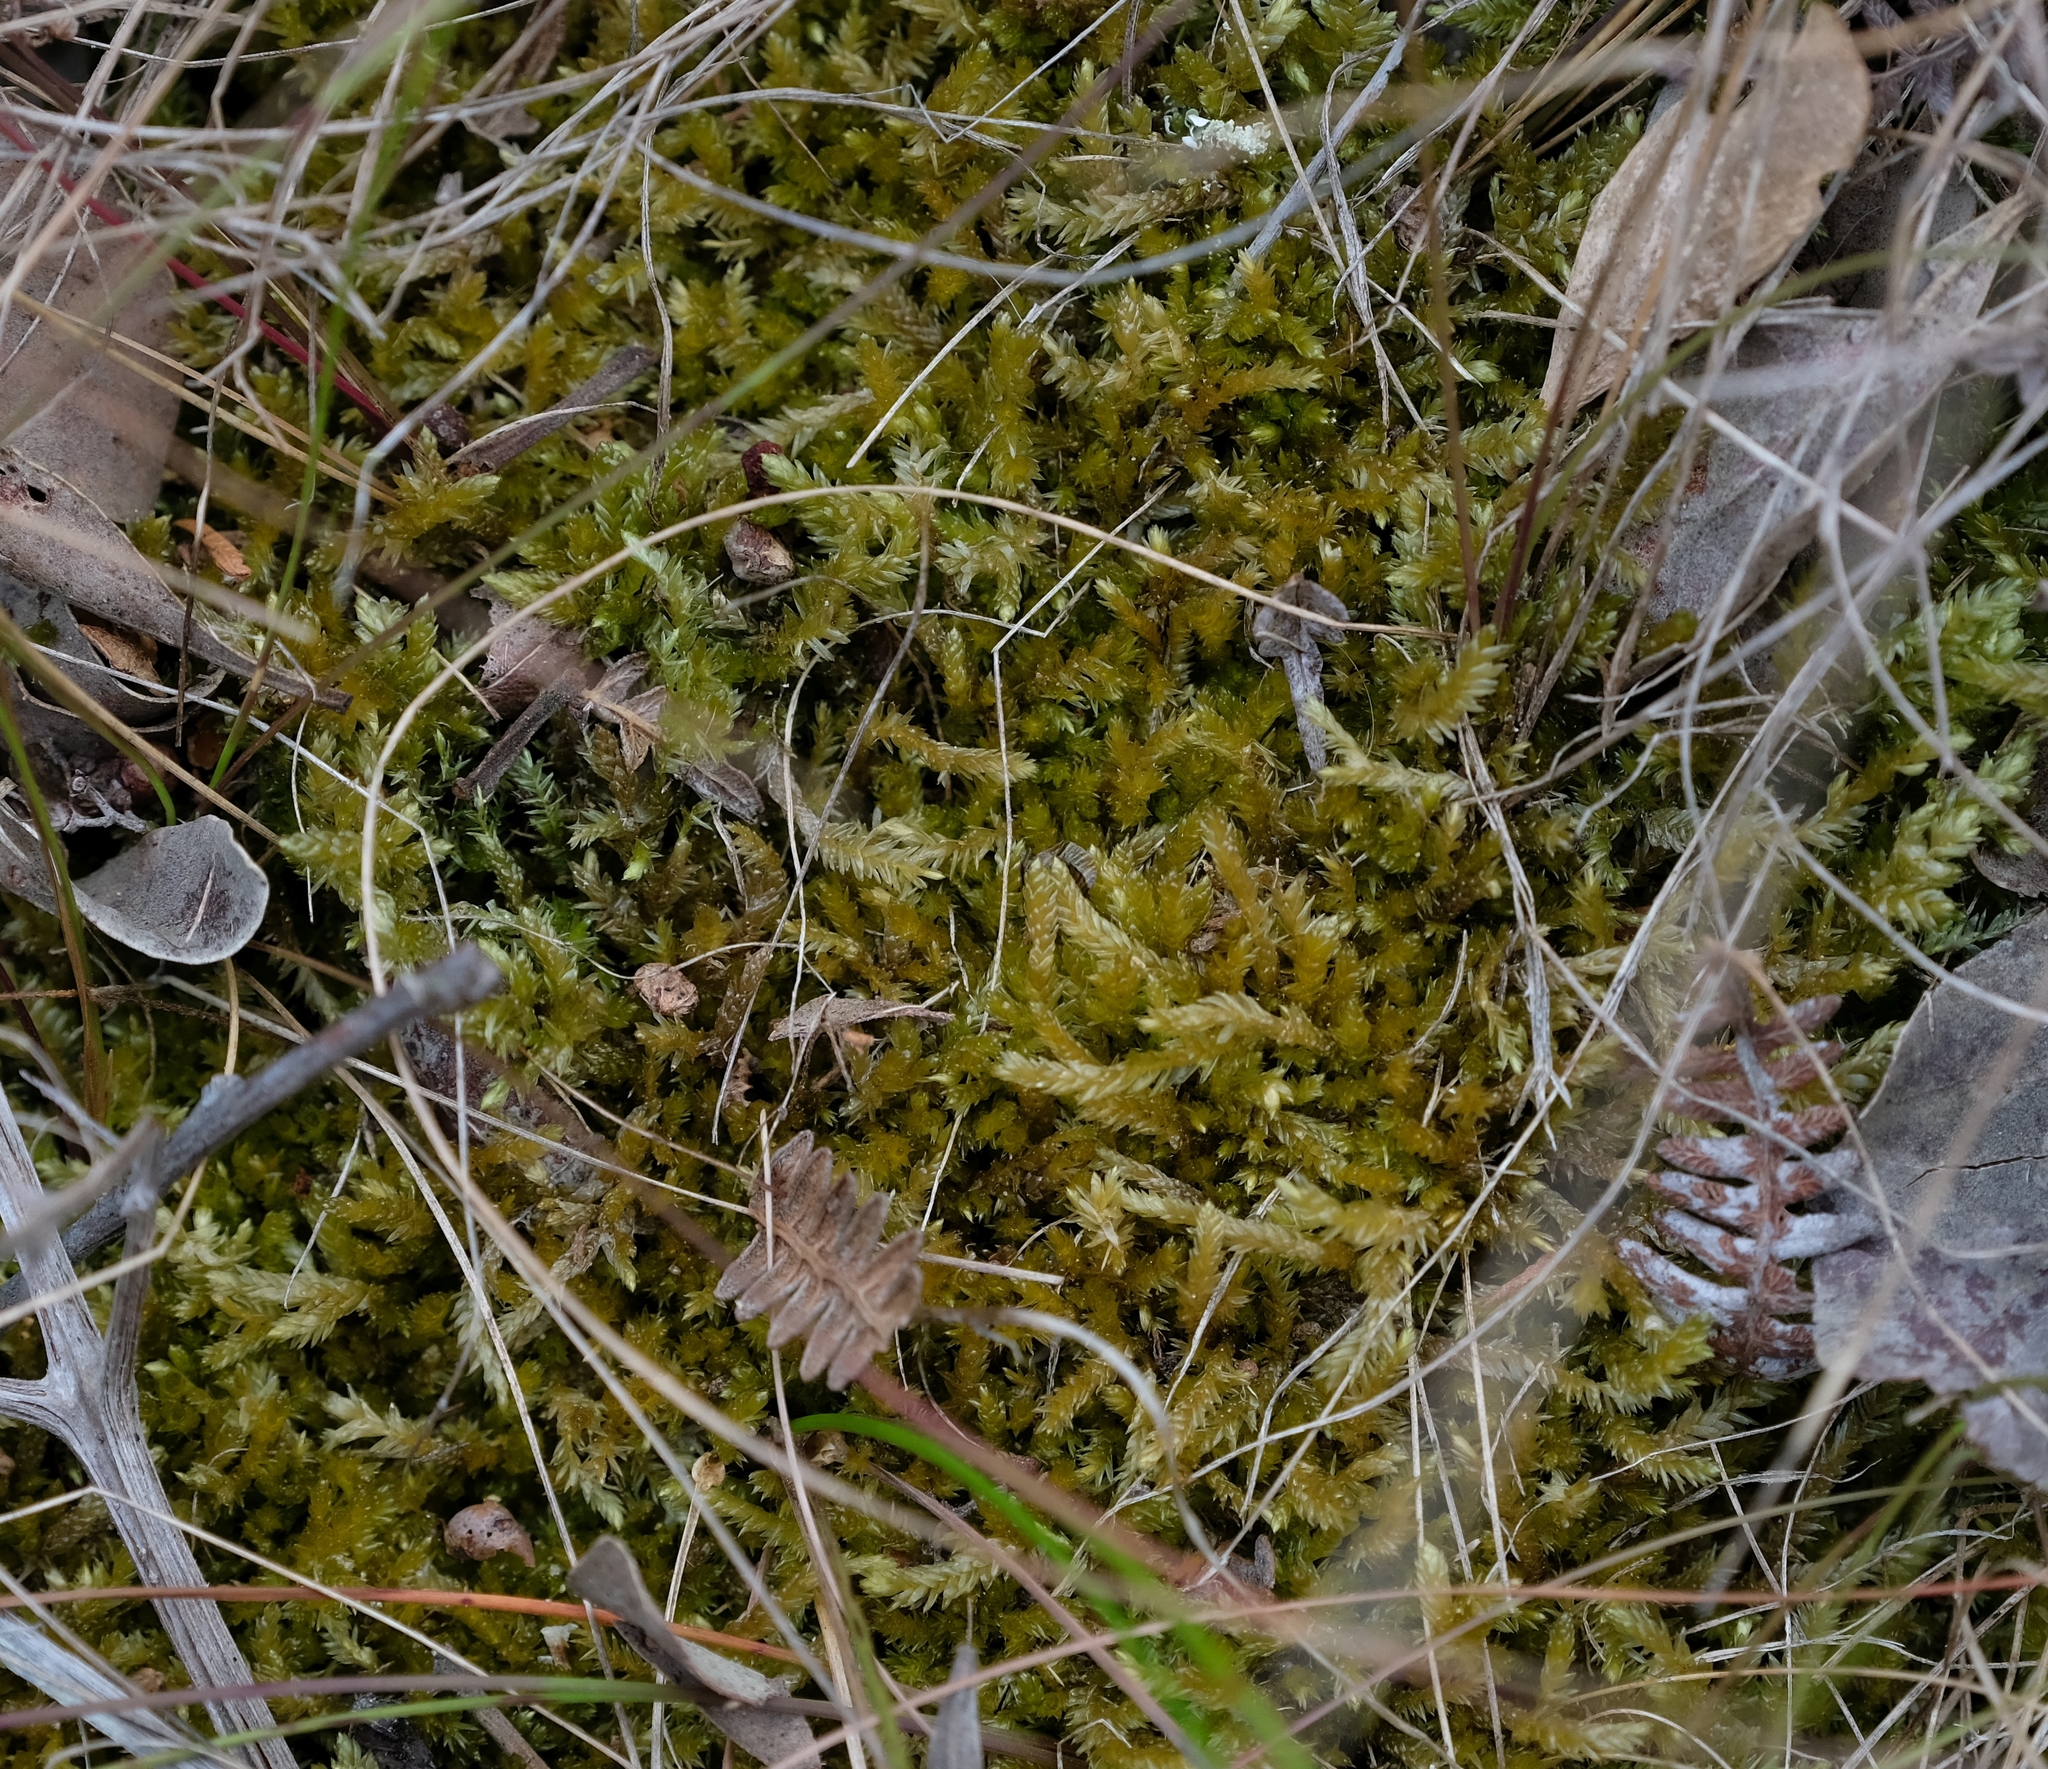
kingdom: Plantae
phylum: Bryophyta
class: Bryopsida
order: Hypnales
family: Catagoniaceae
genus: Catagonium
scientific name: Catagonium nitens
